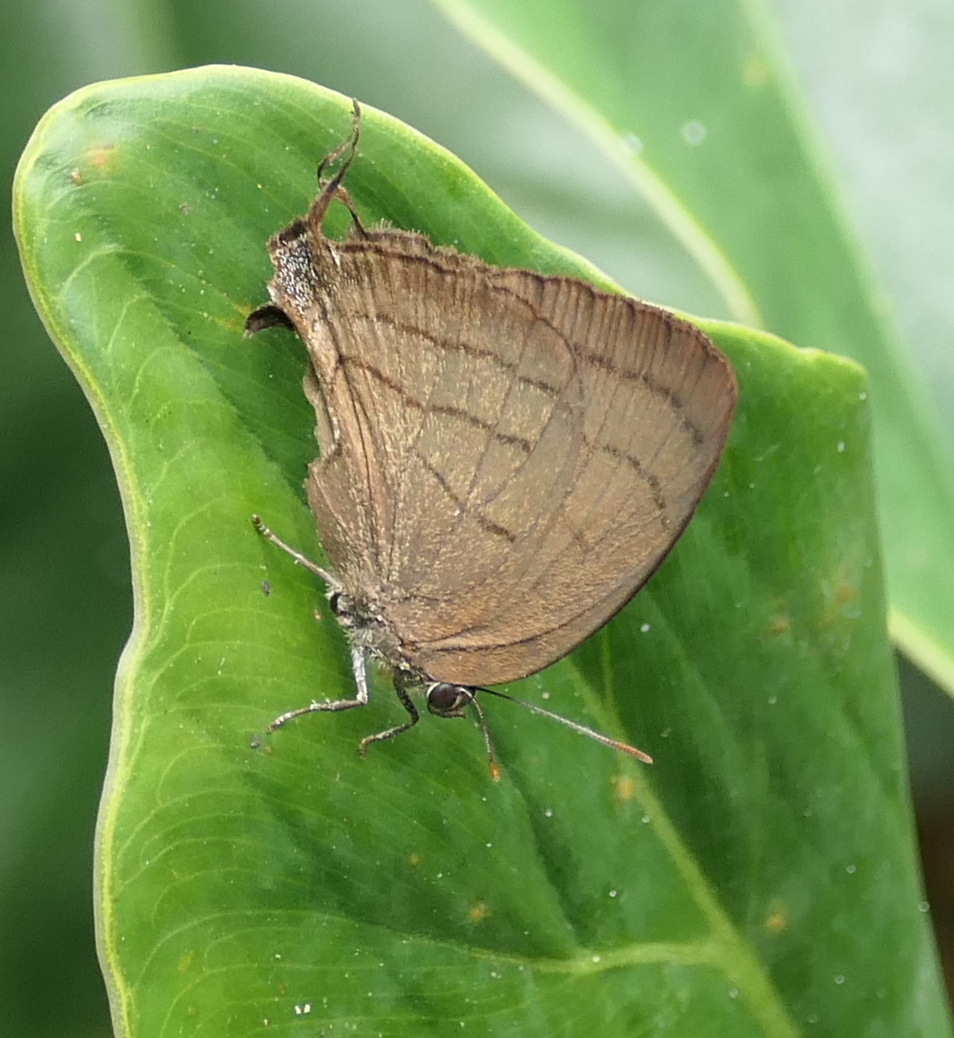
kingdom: Animalia
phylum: Arthropoda
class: Insecta
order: Lepidoptera
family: Lycaenidae
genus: Theritas
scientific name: Theritas
